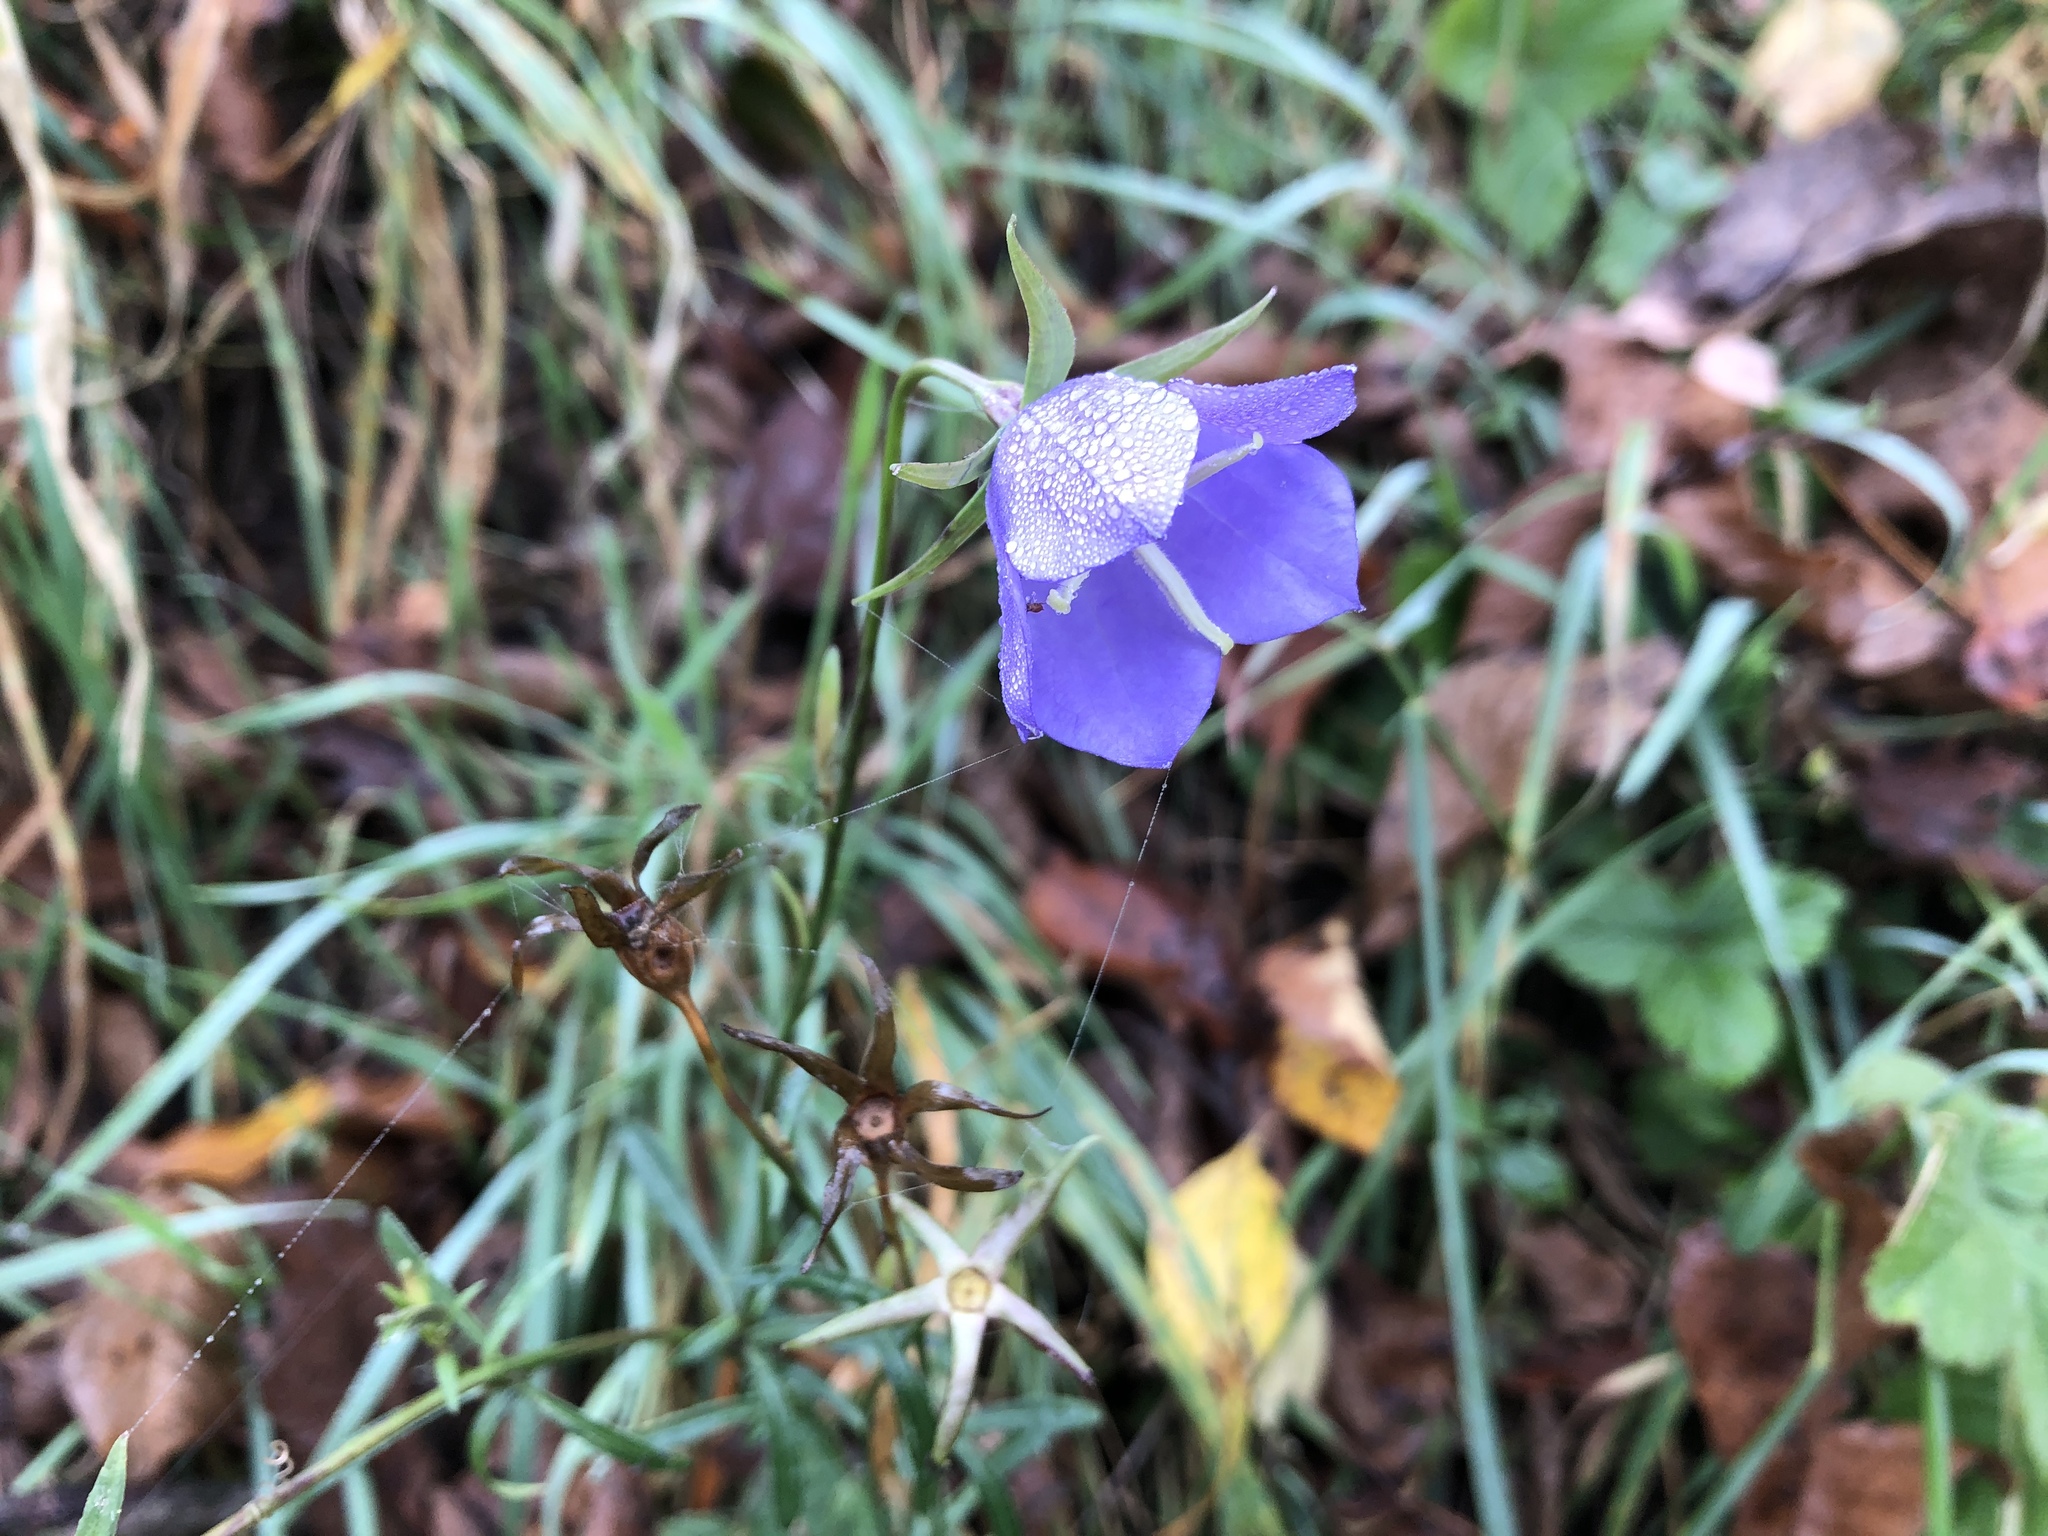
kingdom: Plantae
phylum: Tracheophyta
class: Magnoliopsida
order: Asterales
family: Campanulaceae
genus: Campanula
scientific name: Campanula persicifolia
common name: Peach-leaved bellflower
